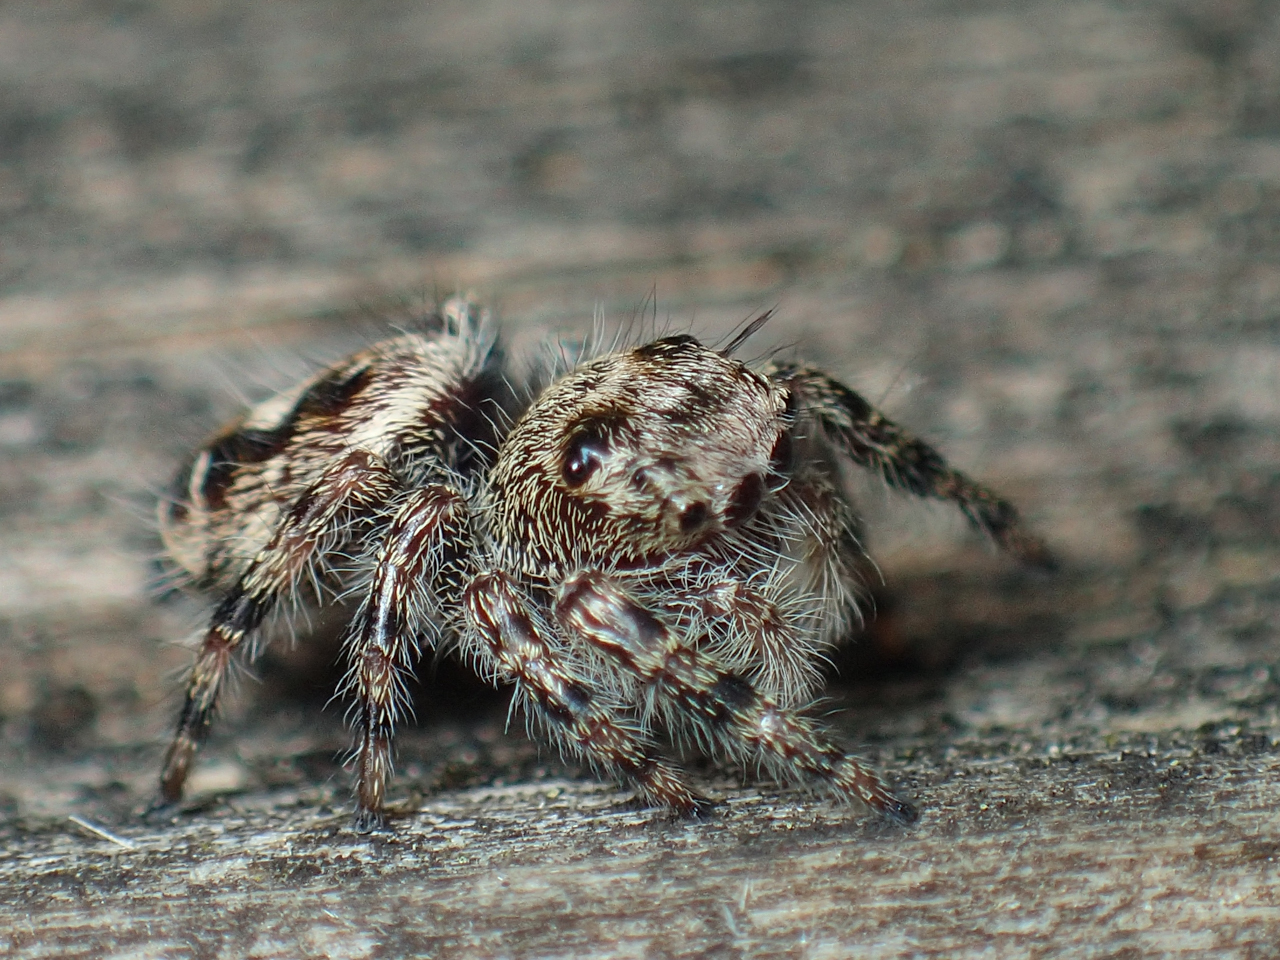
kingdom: Animalia
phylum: Arthropoda
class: Arachnida
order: Araneae
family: Salticidae
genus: Phidippus
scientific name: Phidippus putnami
